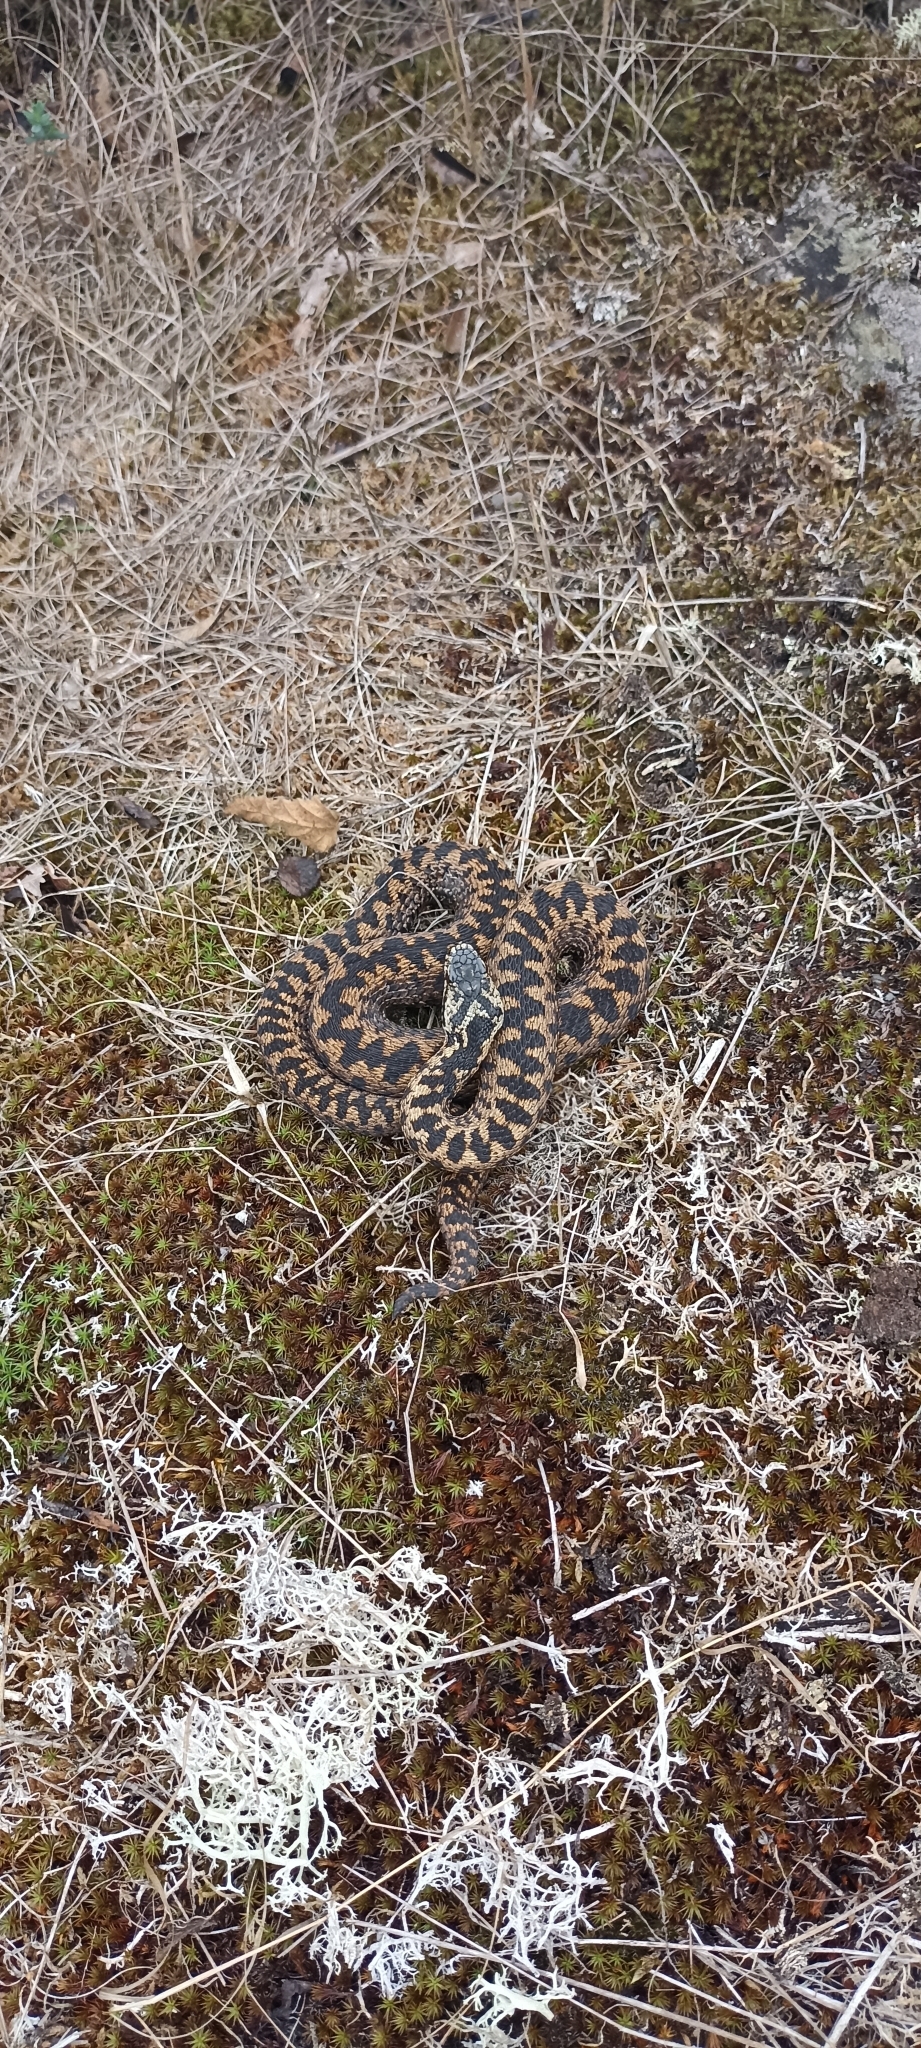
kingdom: Animalia
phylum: Chordata
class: Squamata
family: Viperidae
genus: Vipera
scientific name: Vipera berus
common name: Adder
